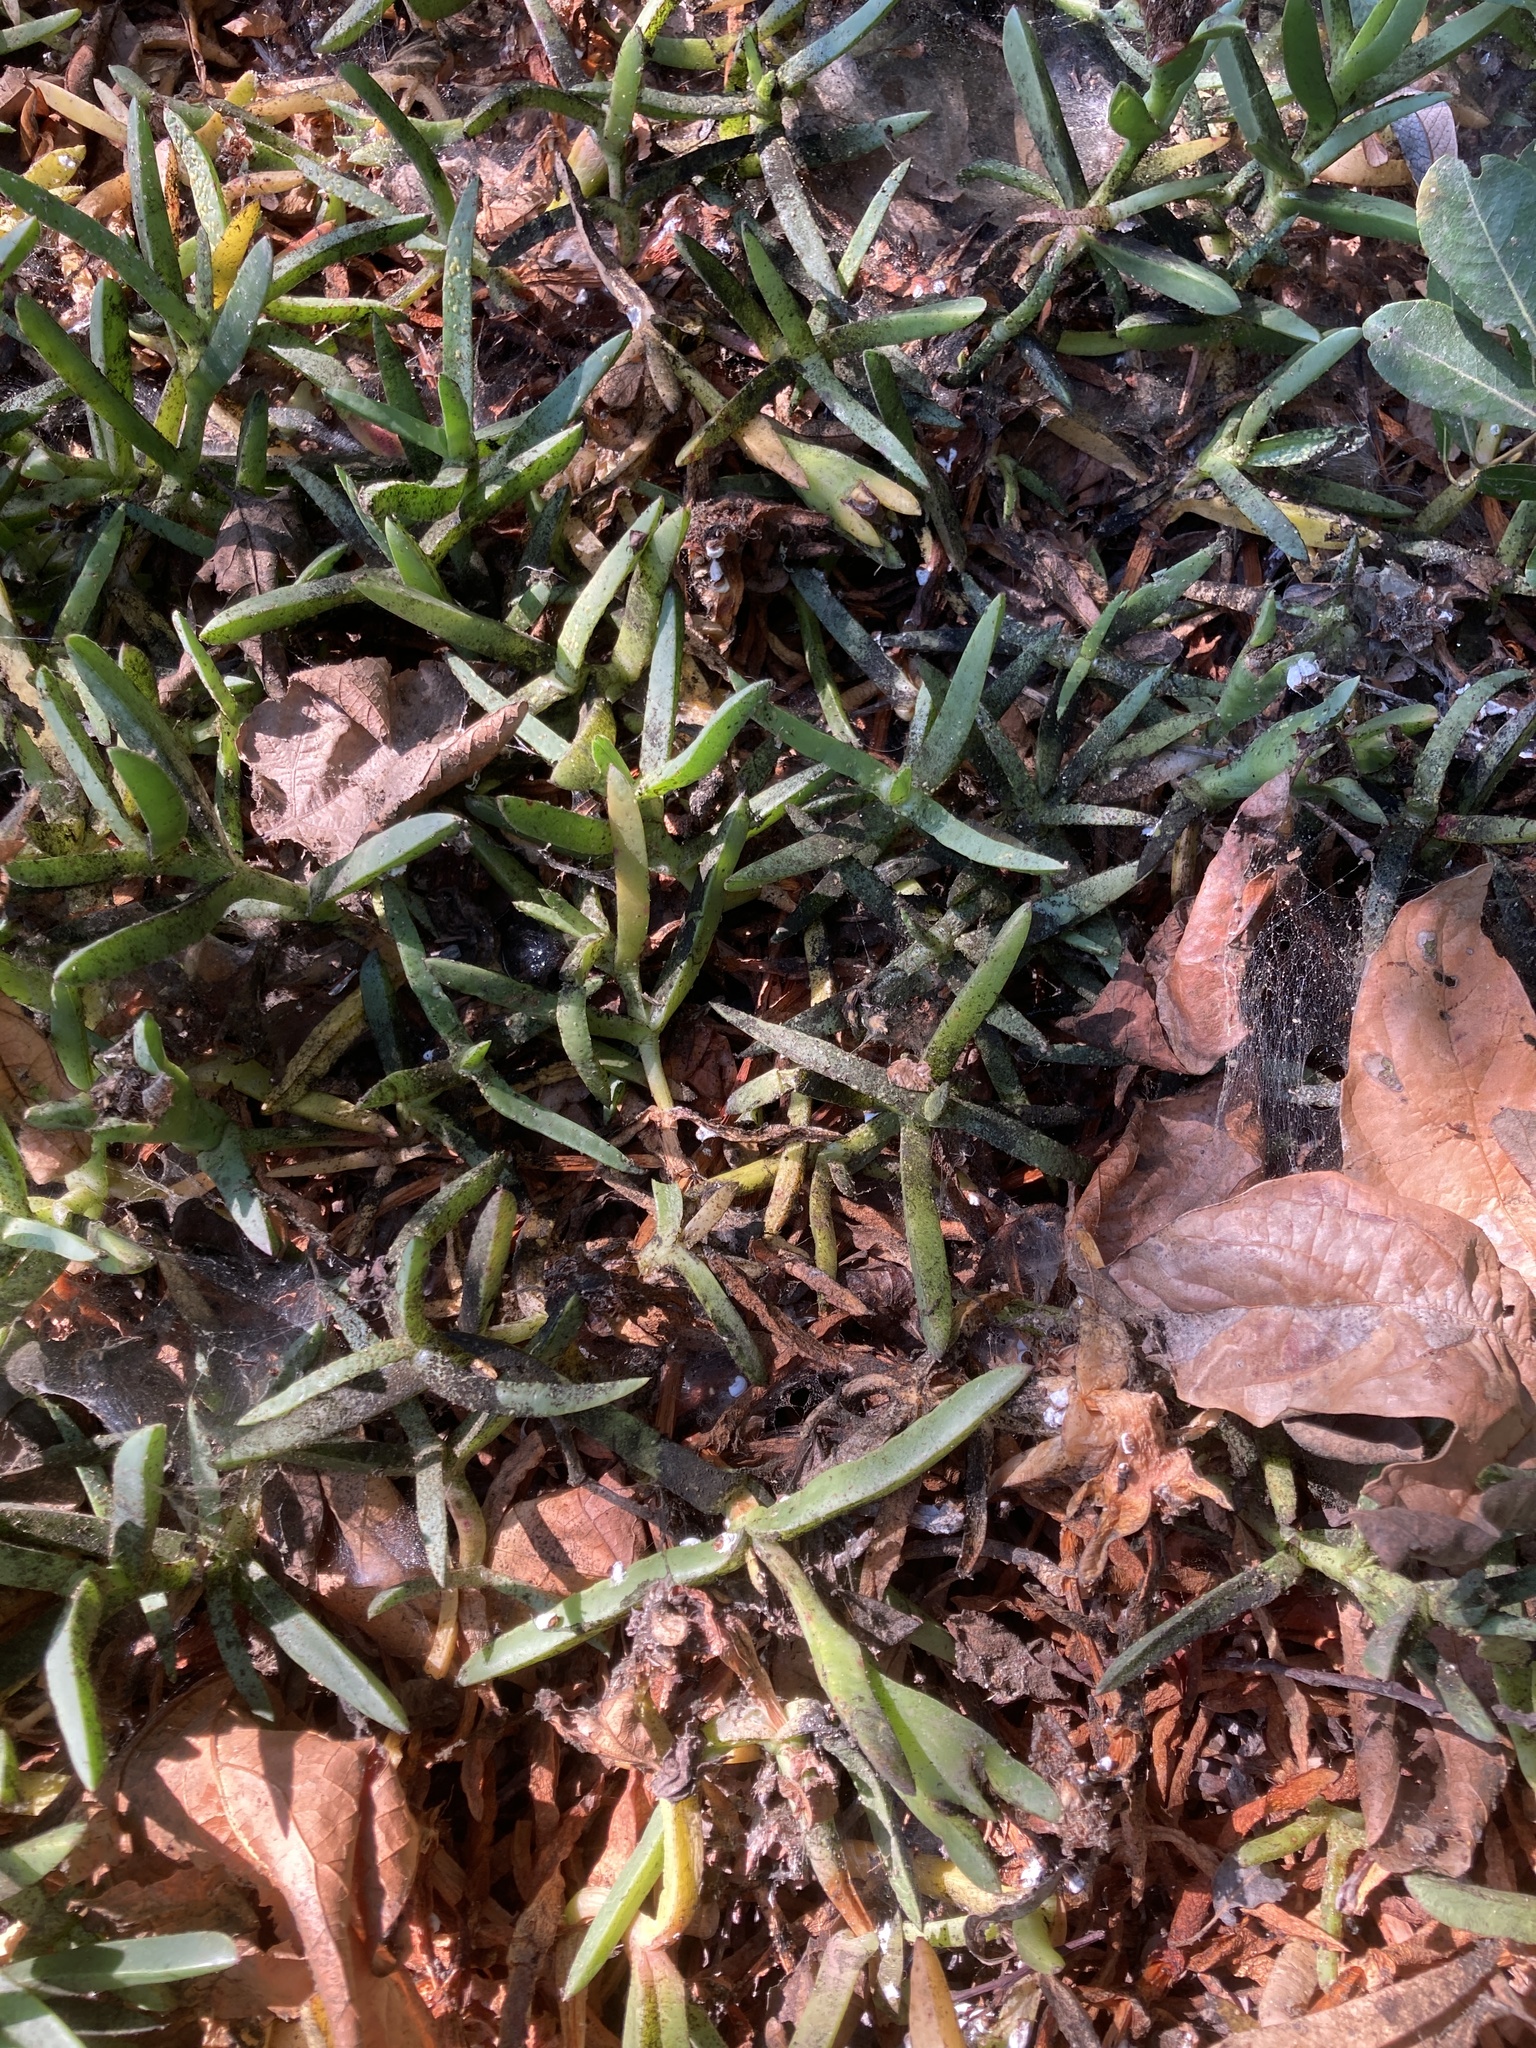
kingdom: Animalia
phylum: Arthropoda
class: Insecta
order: Hemiptera
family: Coccidae
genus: Pulvinariella
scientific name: Pulvinariella mesembryanthemi
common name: Cottony pigface scale
